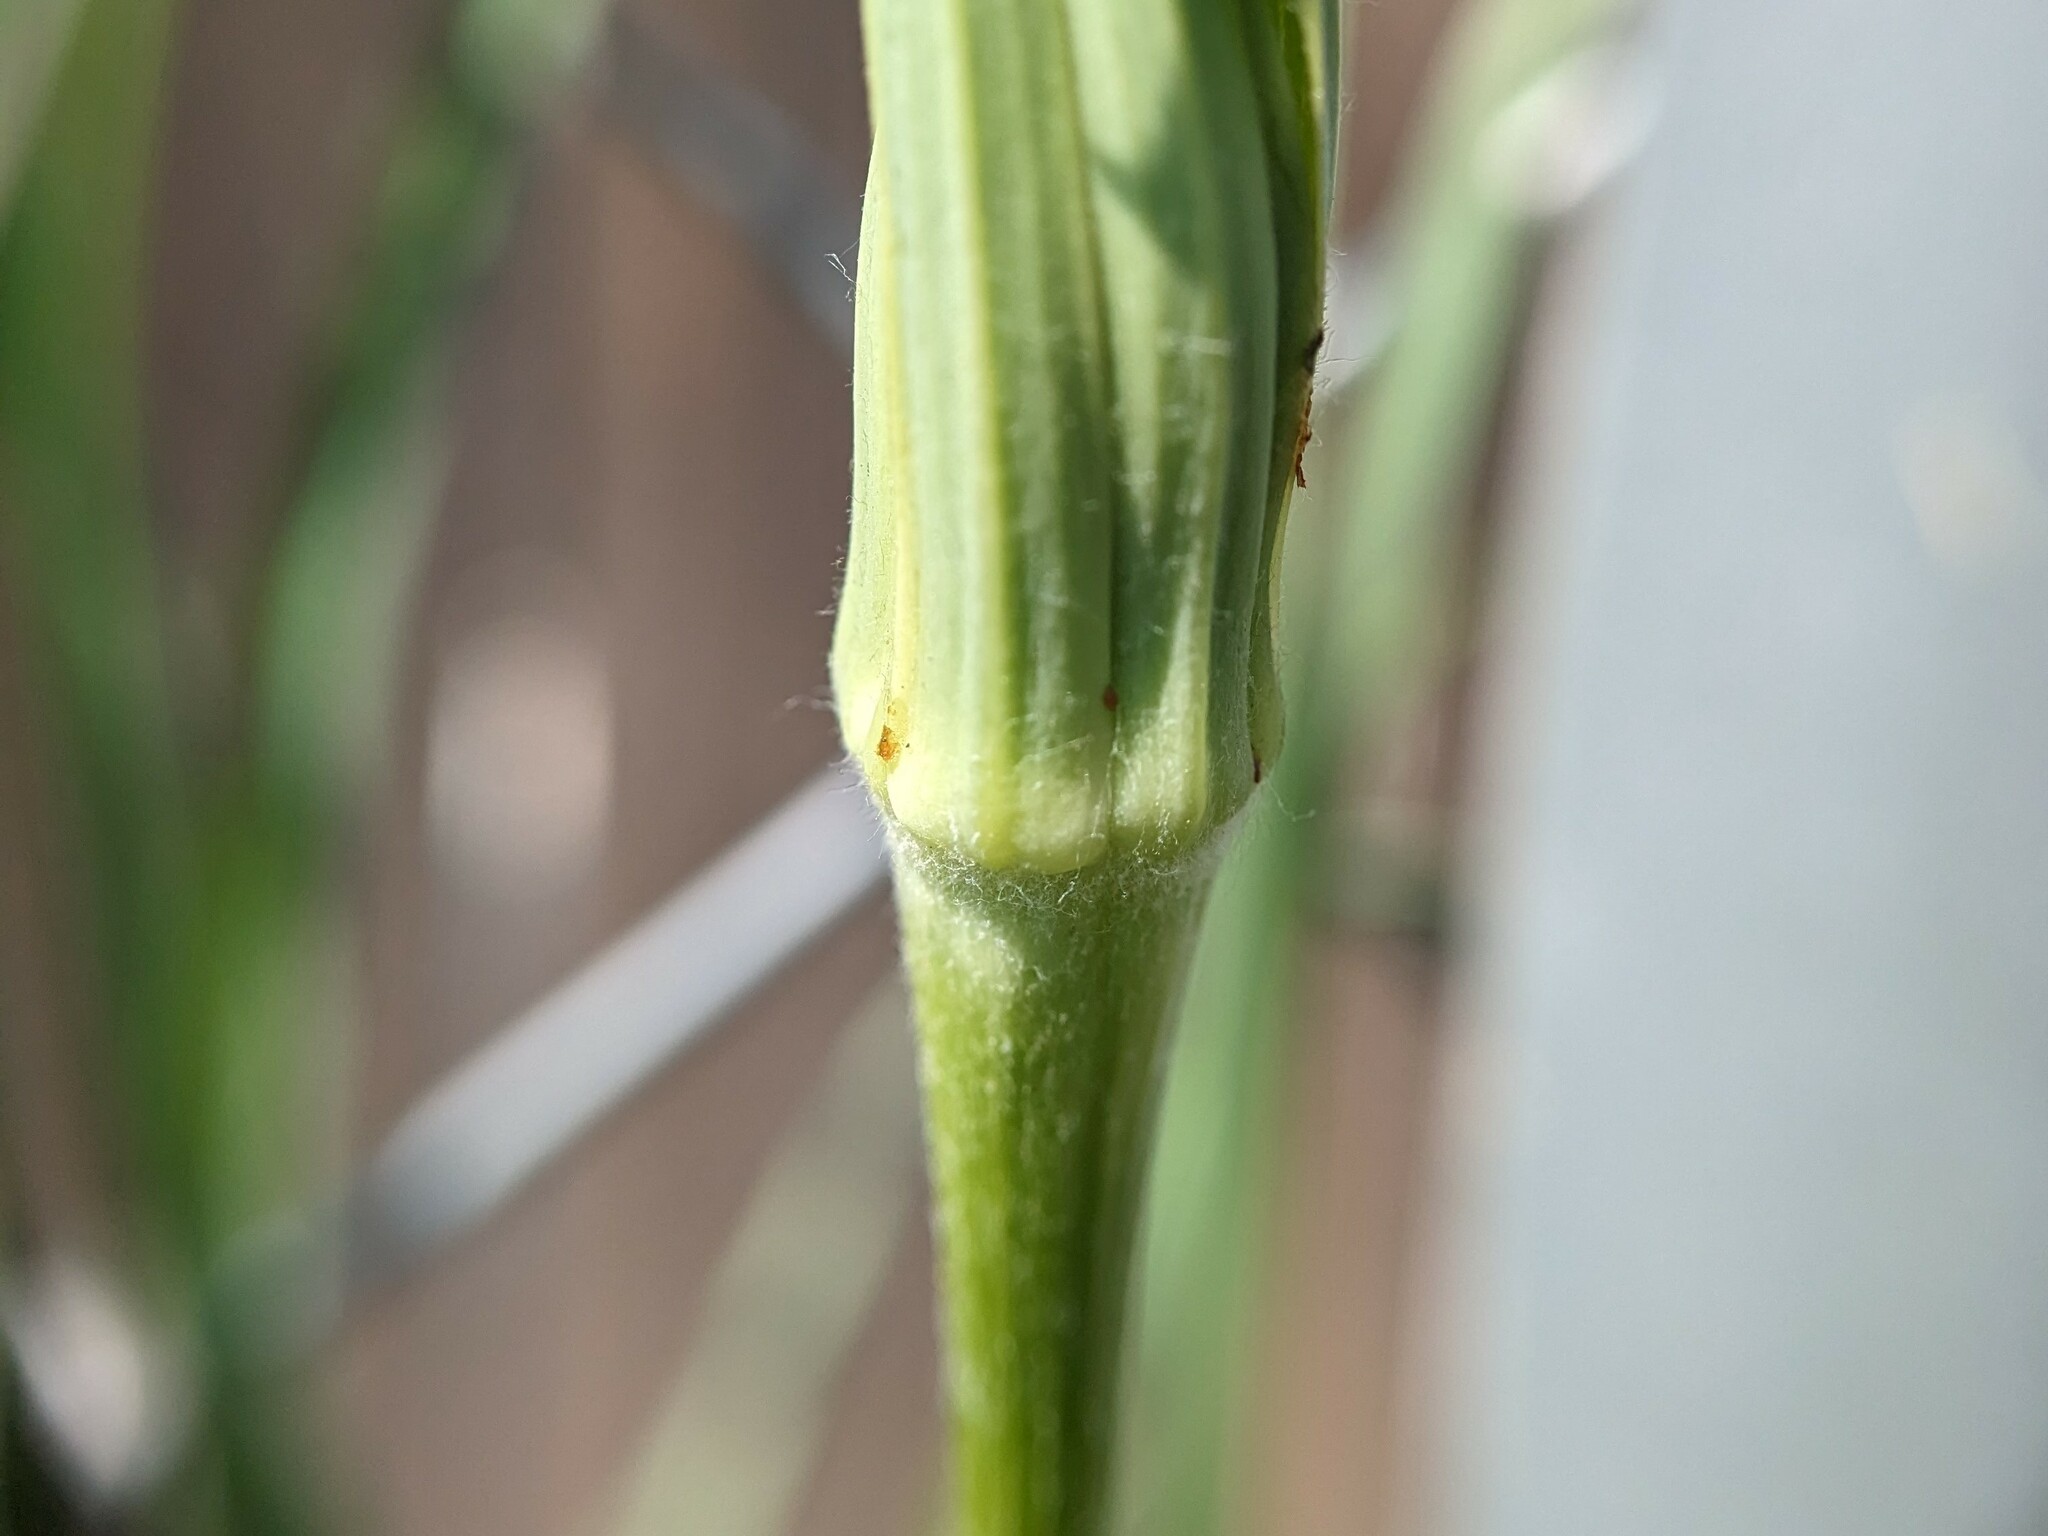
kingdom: Plantae
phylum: Tracheophyta
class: Magnoliopsida
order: Asterales
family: Asteraceae
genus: Tragopogon
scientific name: Tragopogon dubius
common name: Yellow salsify
